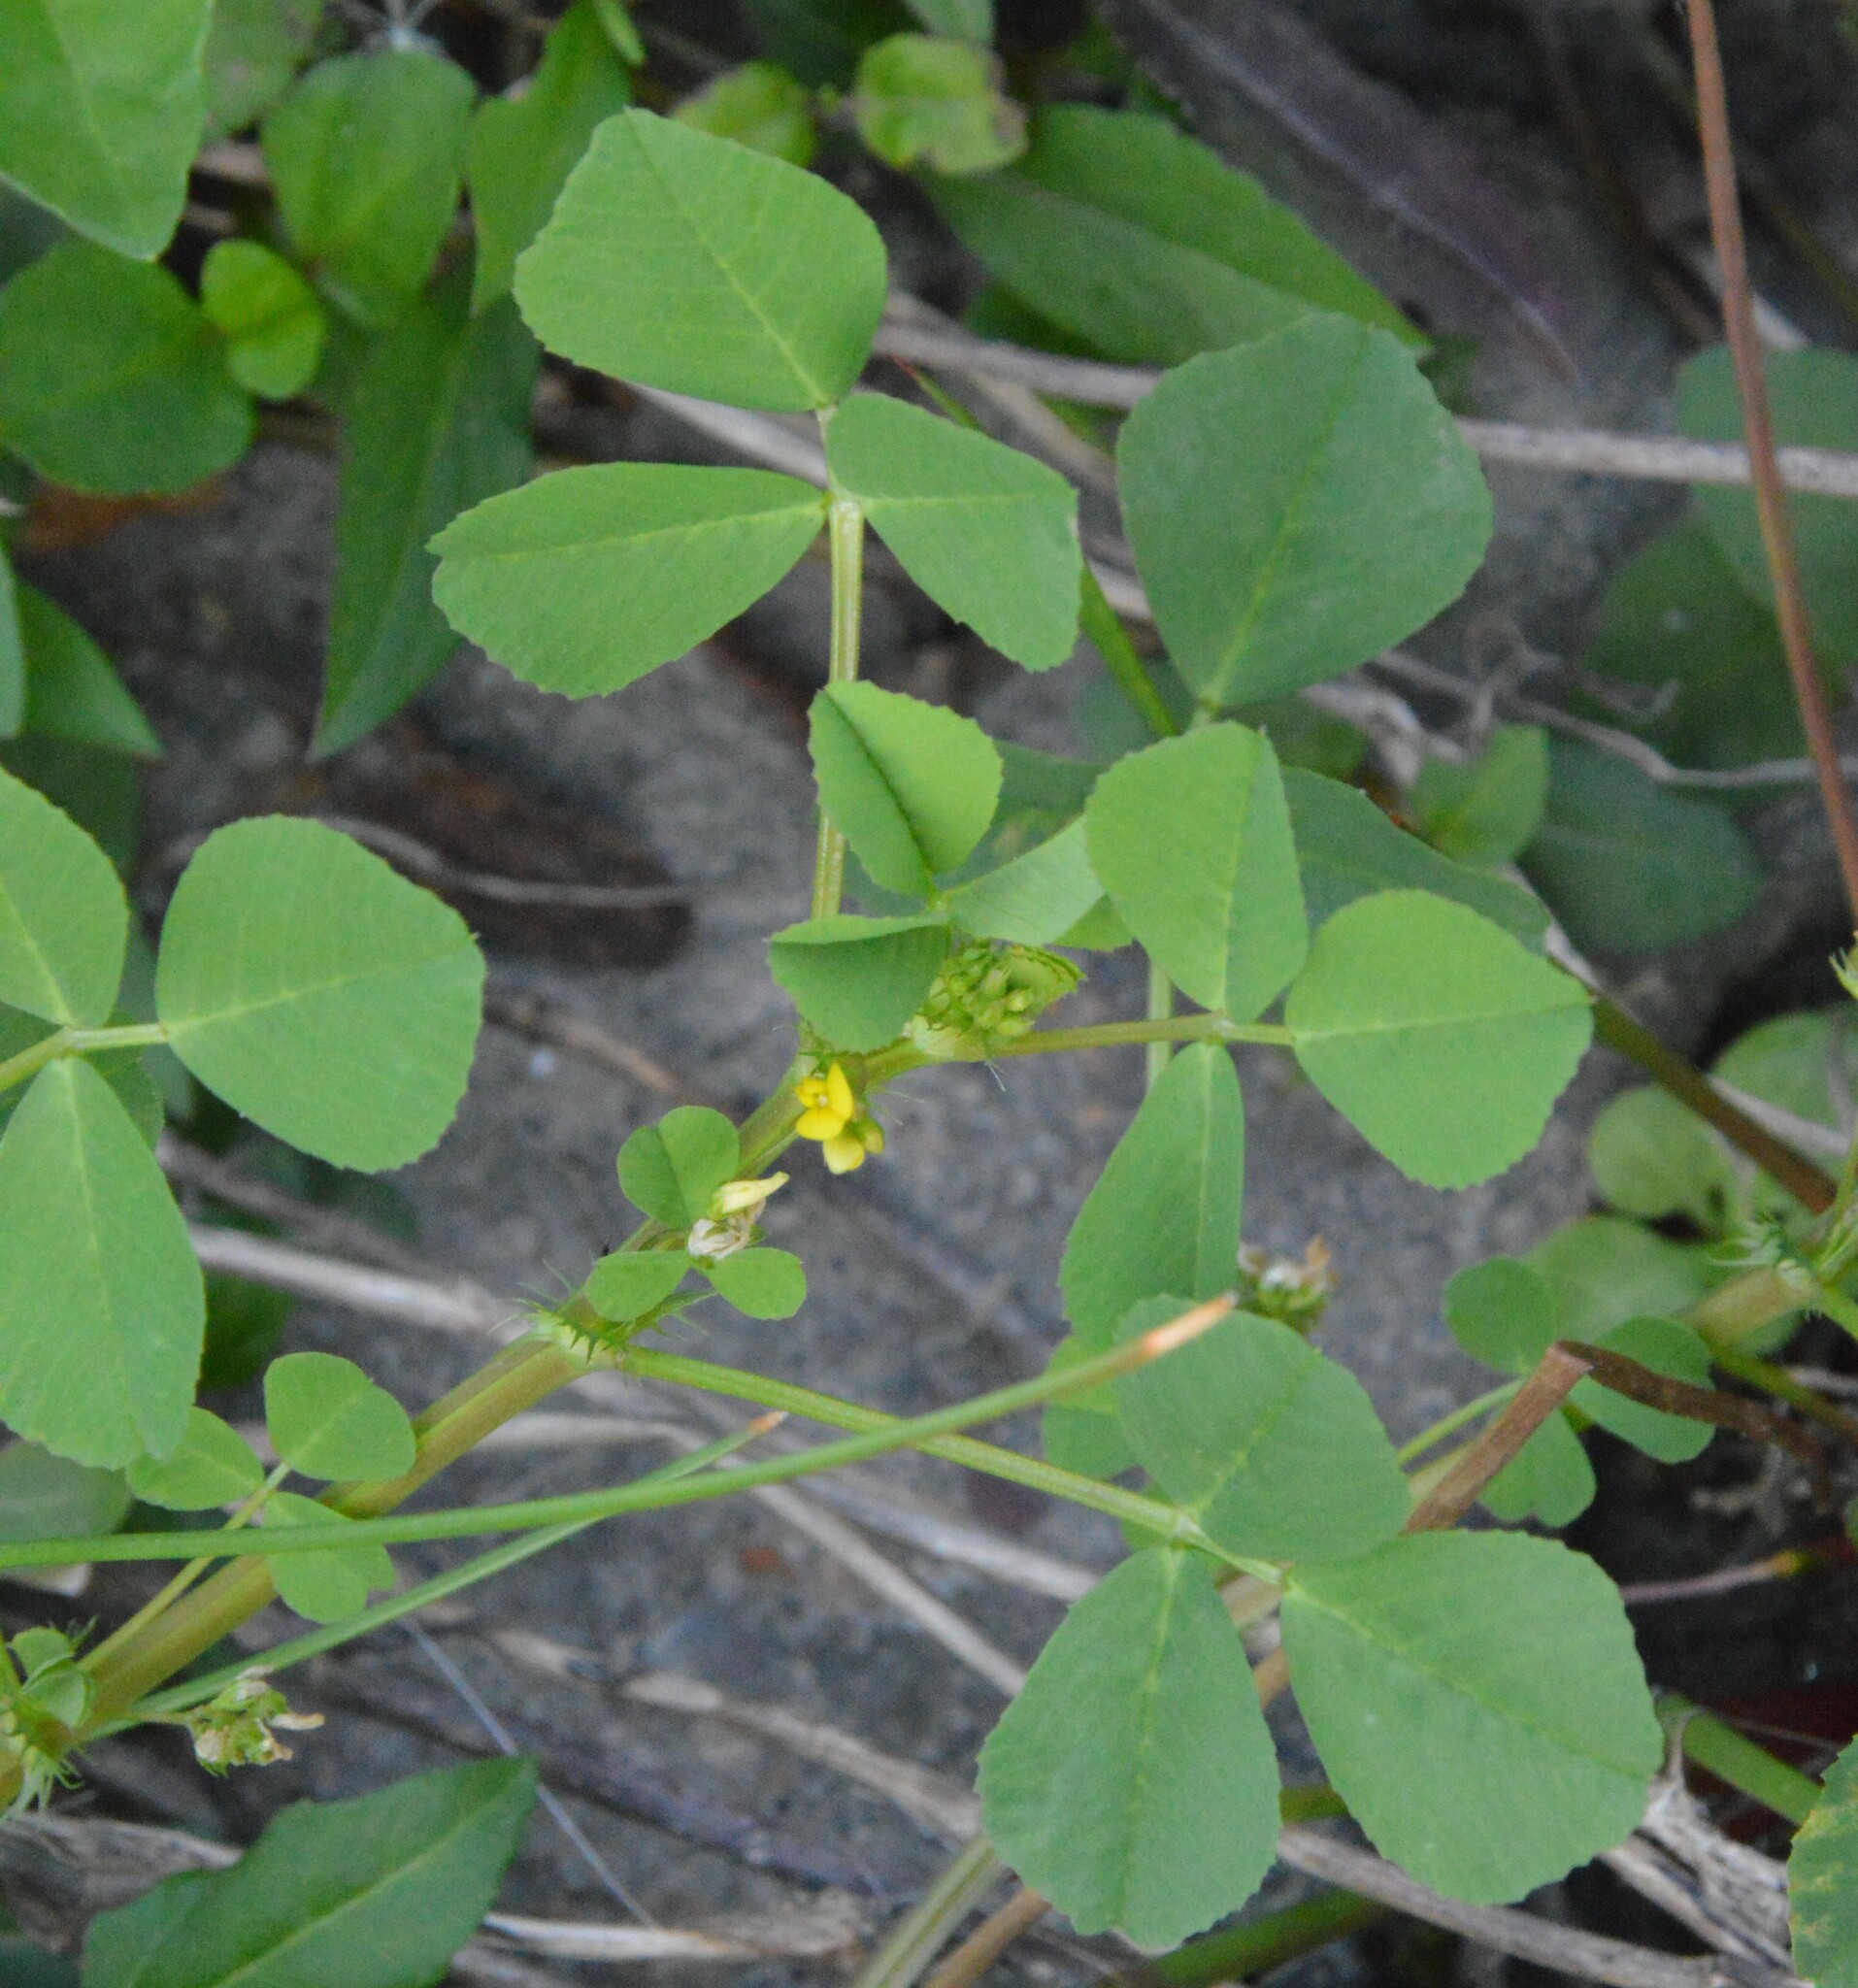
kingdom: Plantae
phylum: Tracheophyta
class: Magnoliopsida
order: Fabales
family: Fabaceae
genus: Medicago
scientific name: Medicago polymorpha
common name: Burclover
